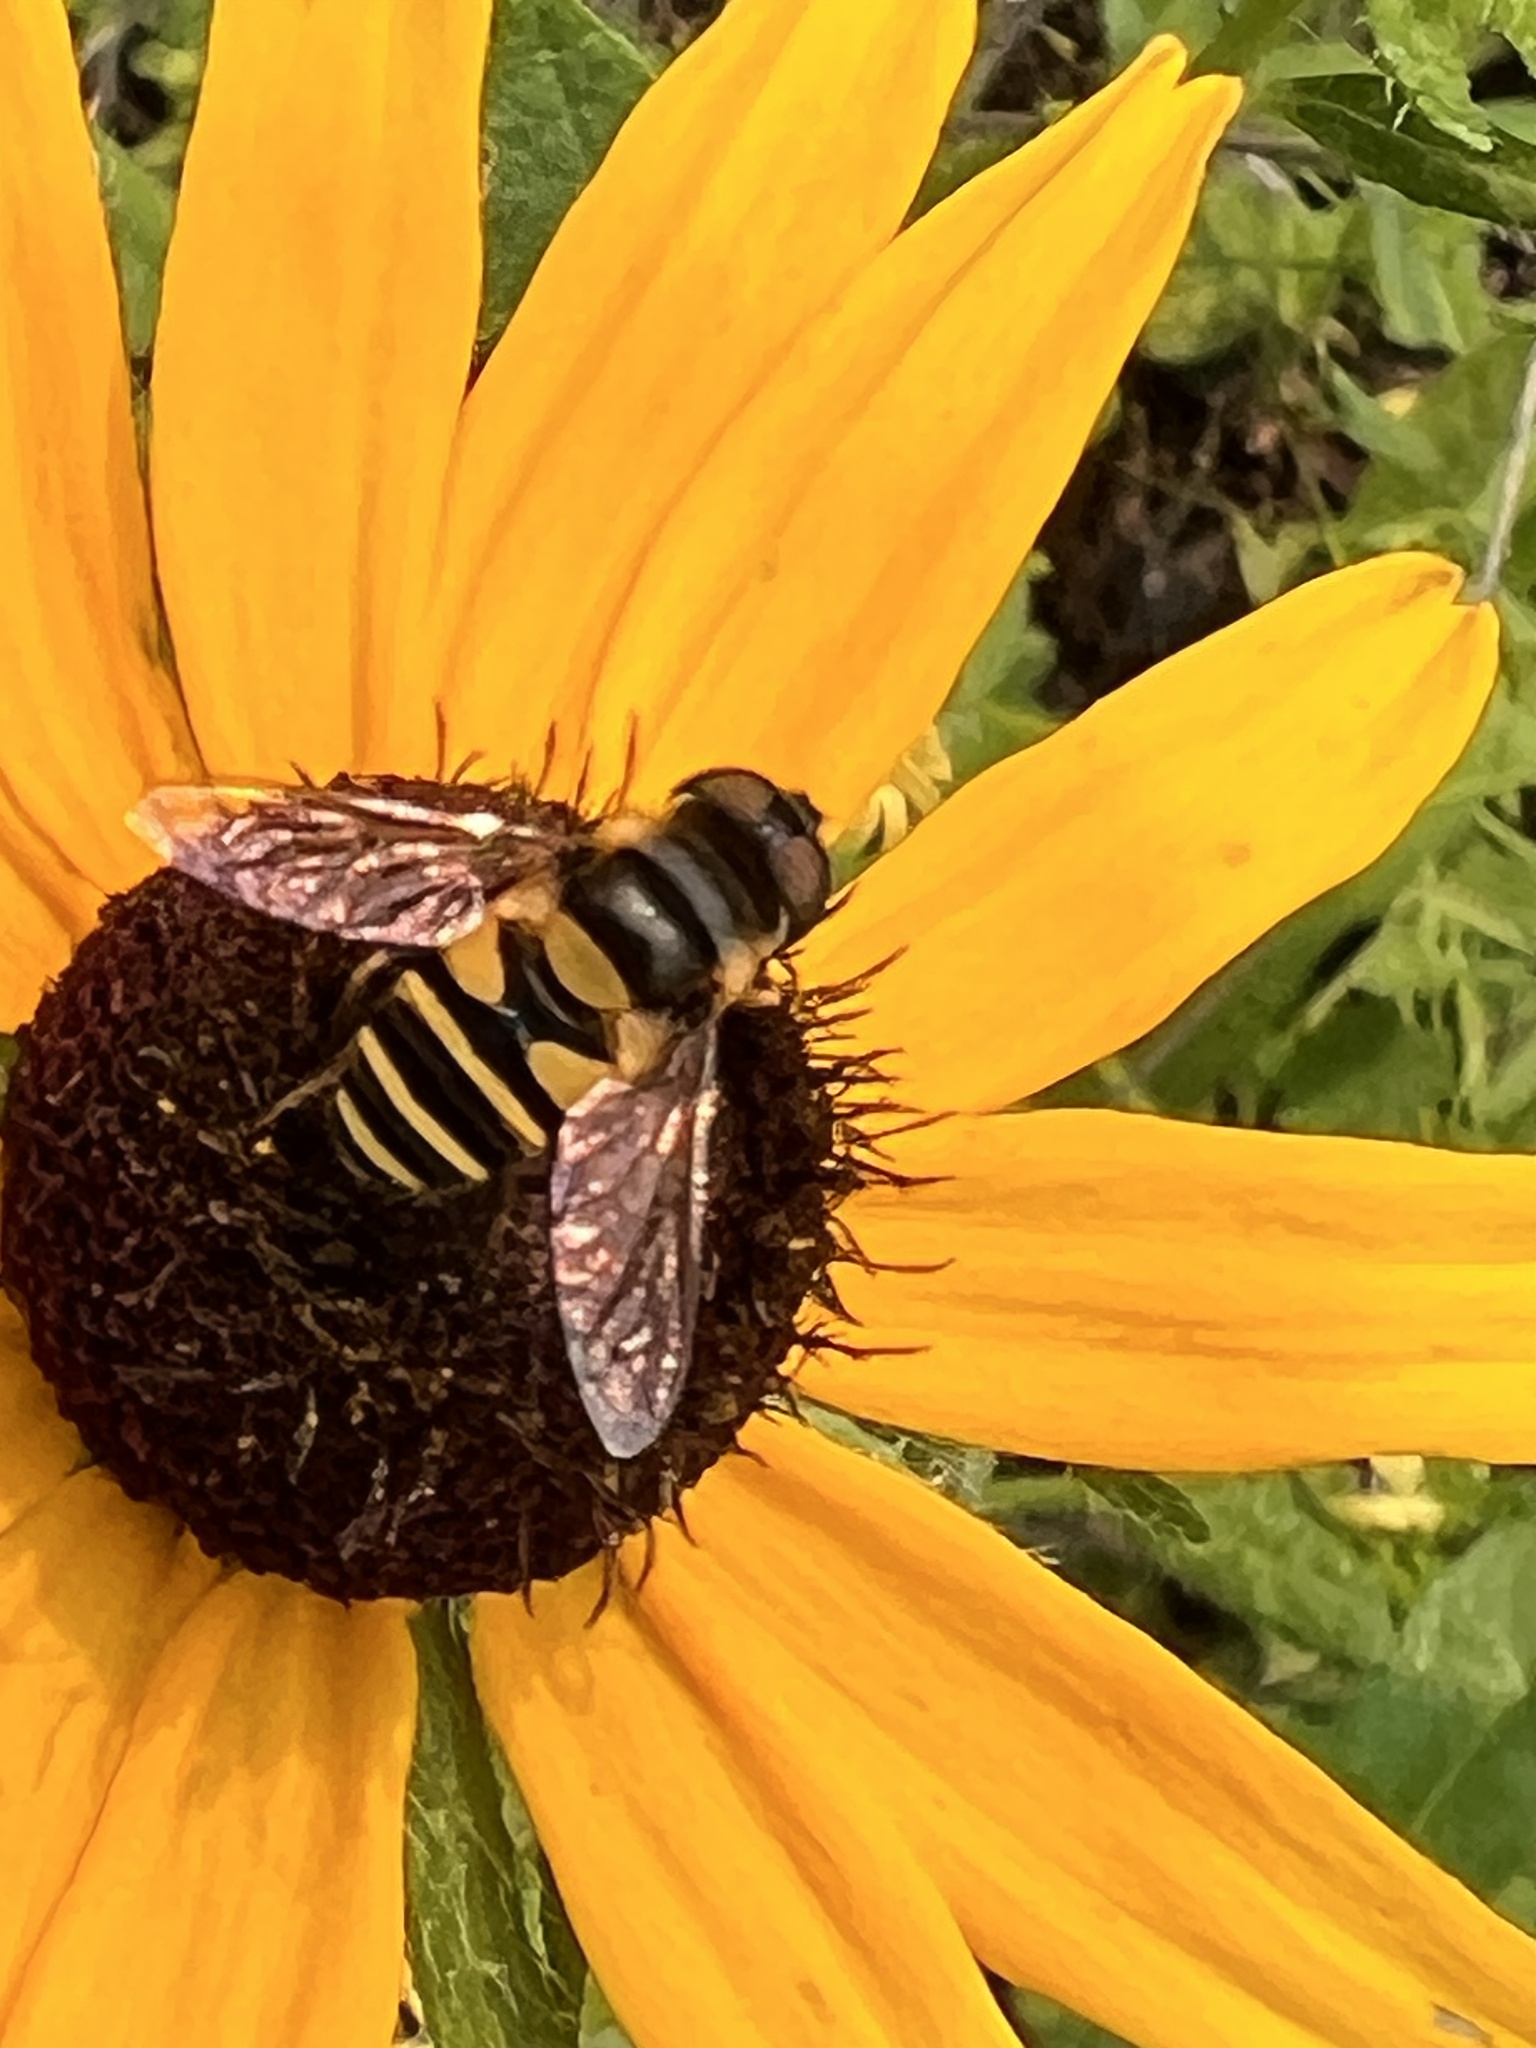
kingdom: Animalia
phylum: Arthropoda
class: Insecta
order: Diptera
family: Syrphidae
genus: Eristalis
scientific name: Eristalis transversa
